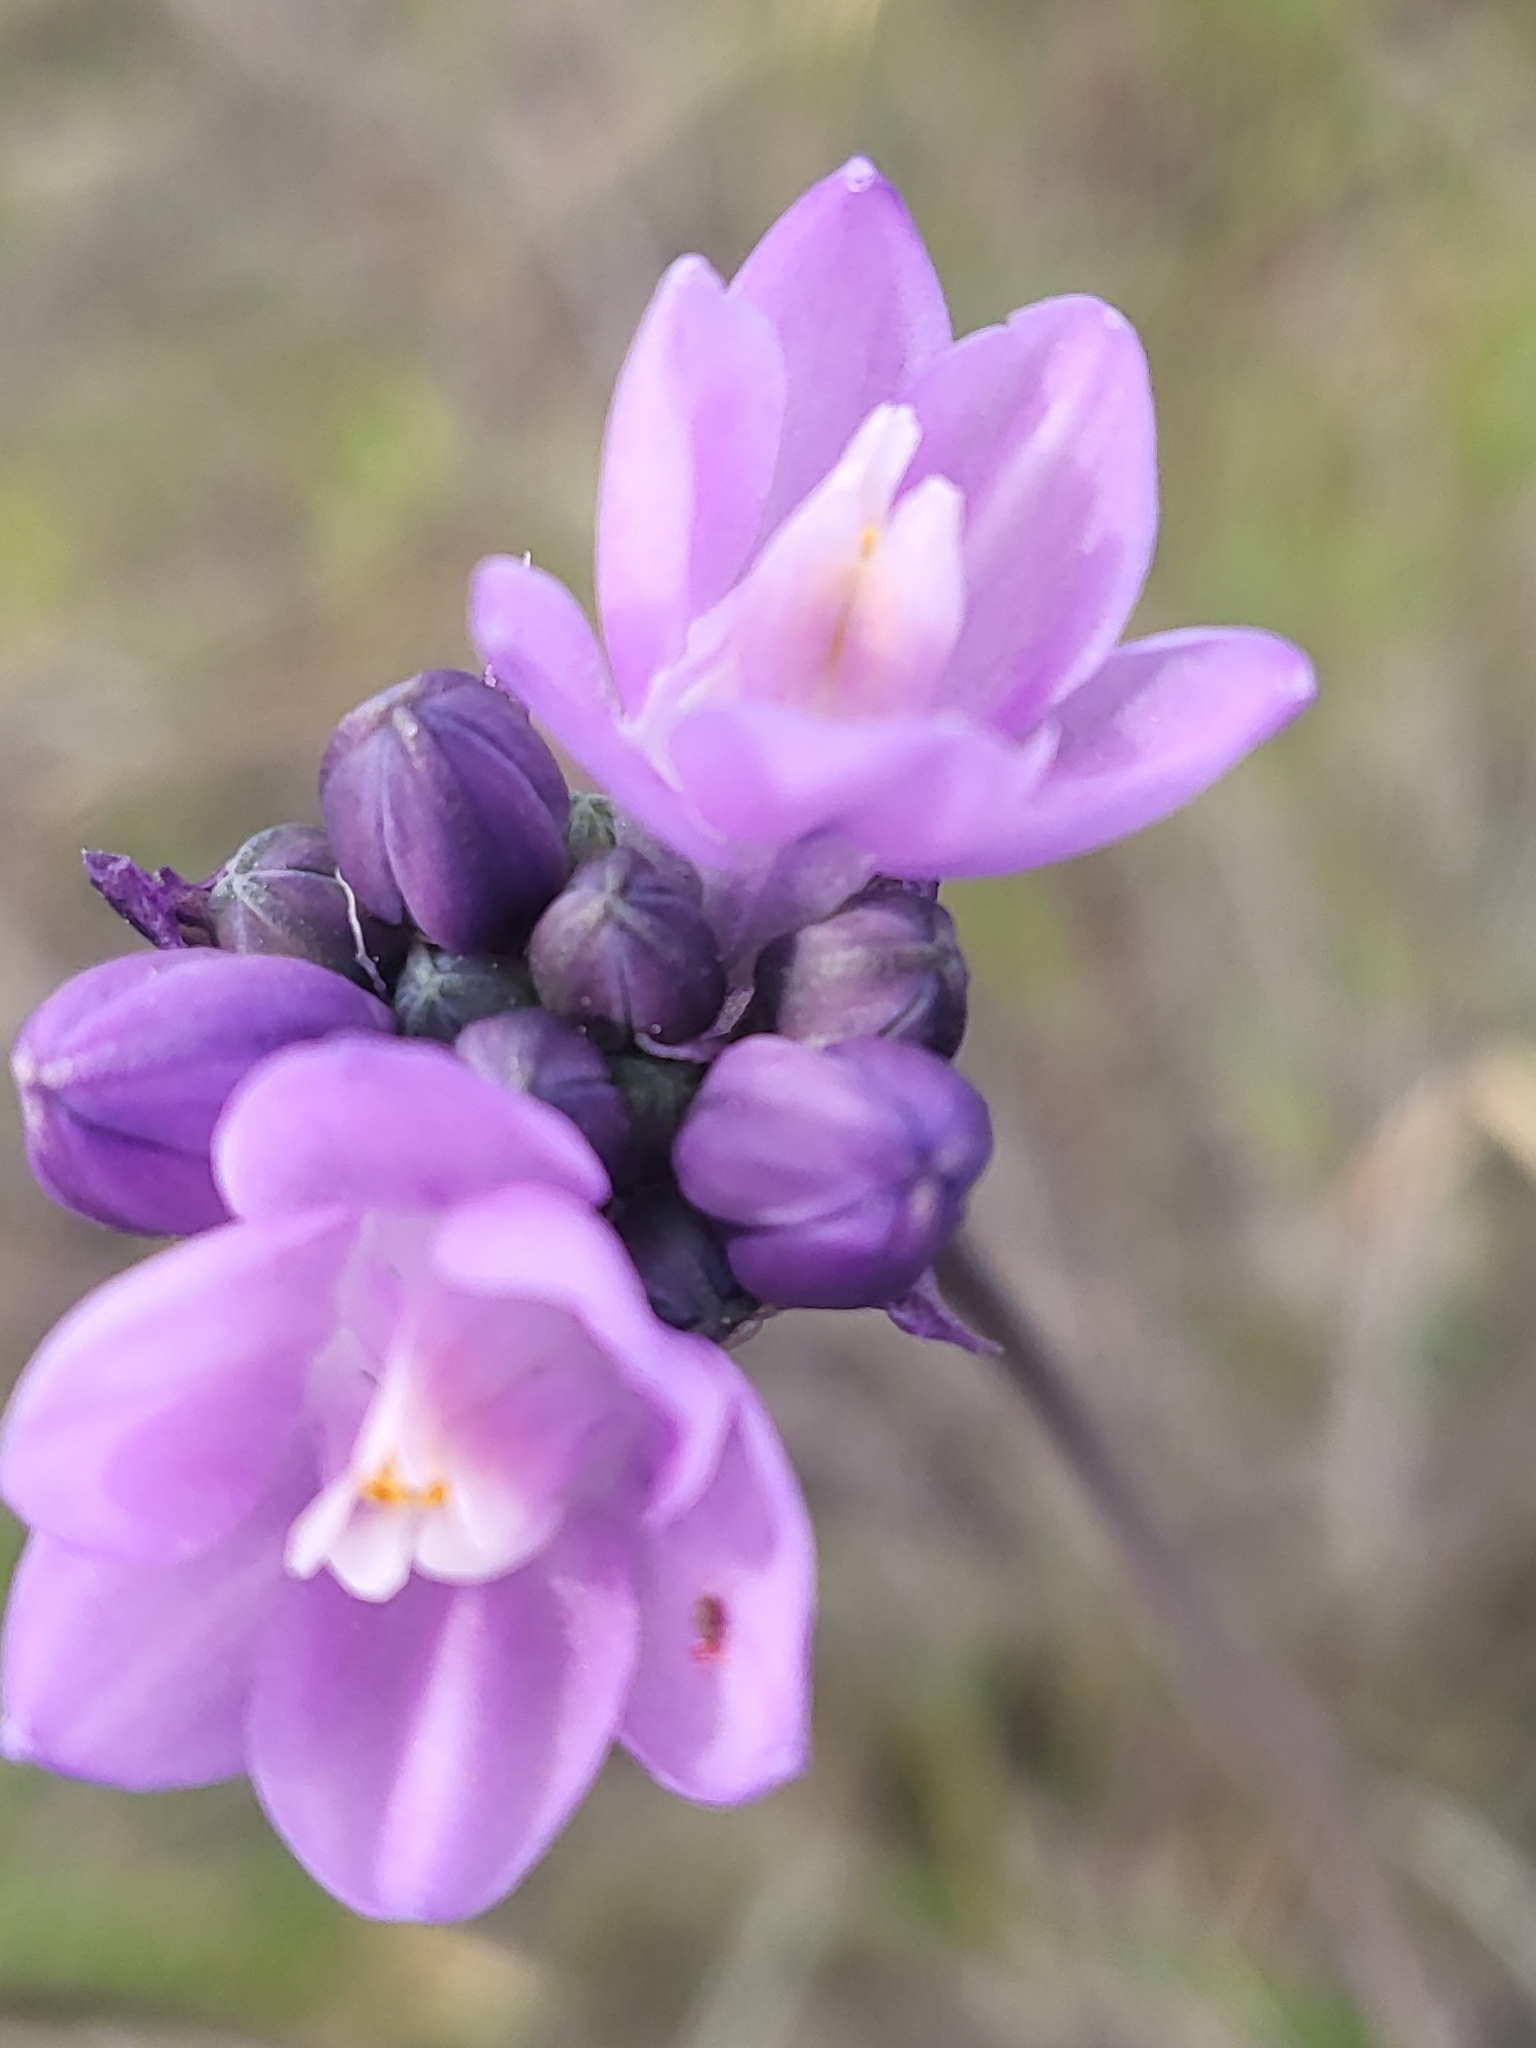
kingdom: Plantae
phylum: Tracheophyta
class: Liliopsida
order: Asparagales
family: Asparagaceae
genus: Dipterostemon
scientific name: Dipterostemon capitatus
